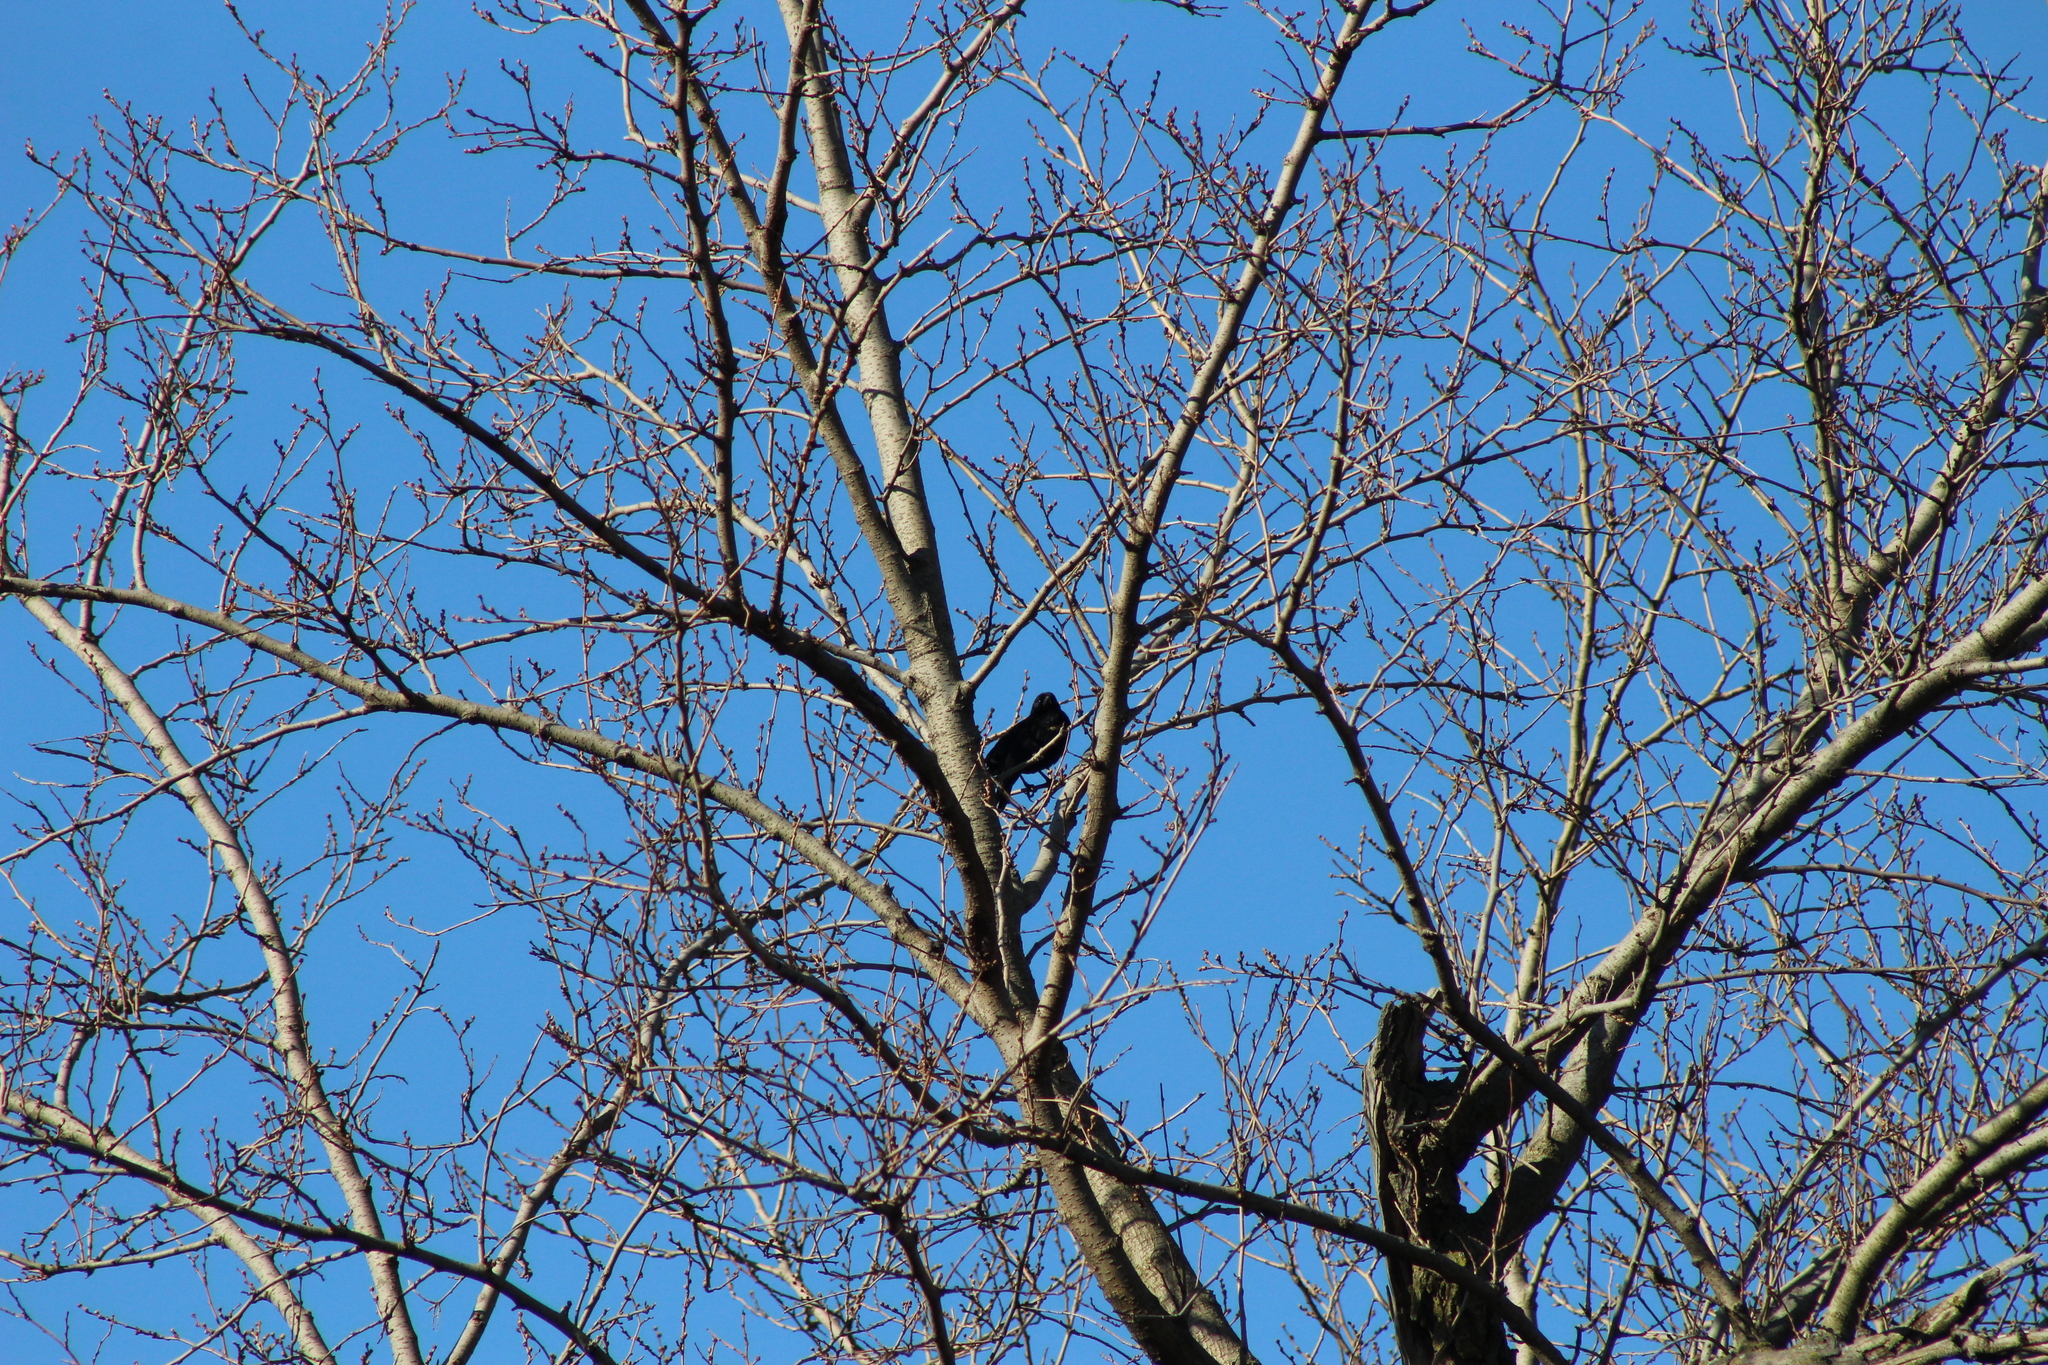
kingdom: Animalia
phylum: Chordata
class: Aves
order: Passeriformes
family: Icteridae
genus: Agelaius
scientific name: Agelaius phoeniceus
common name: Red-winged blackbird
